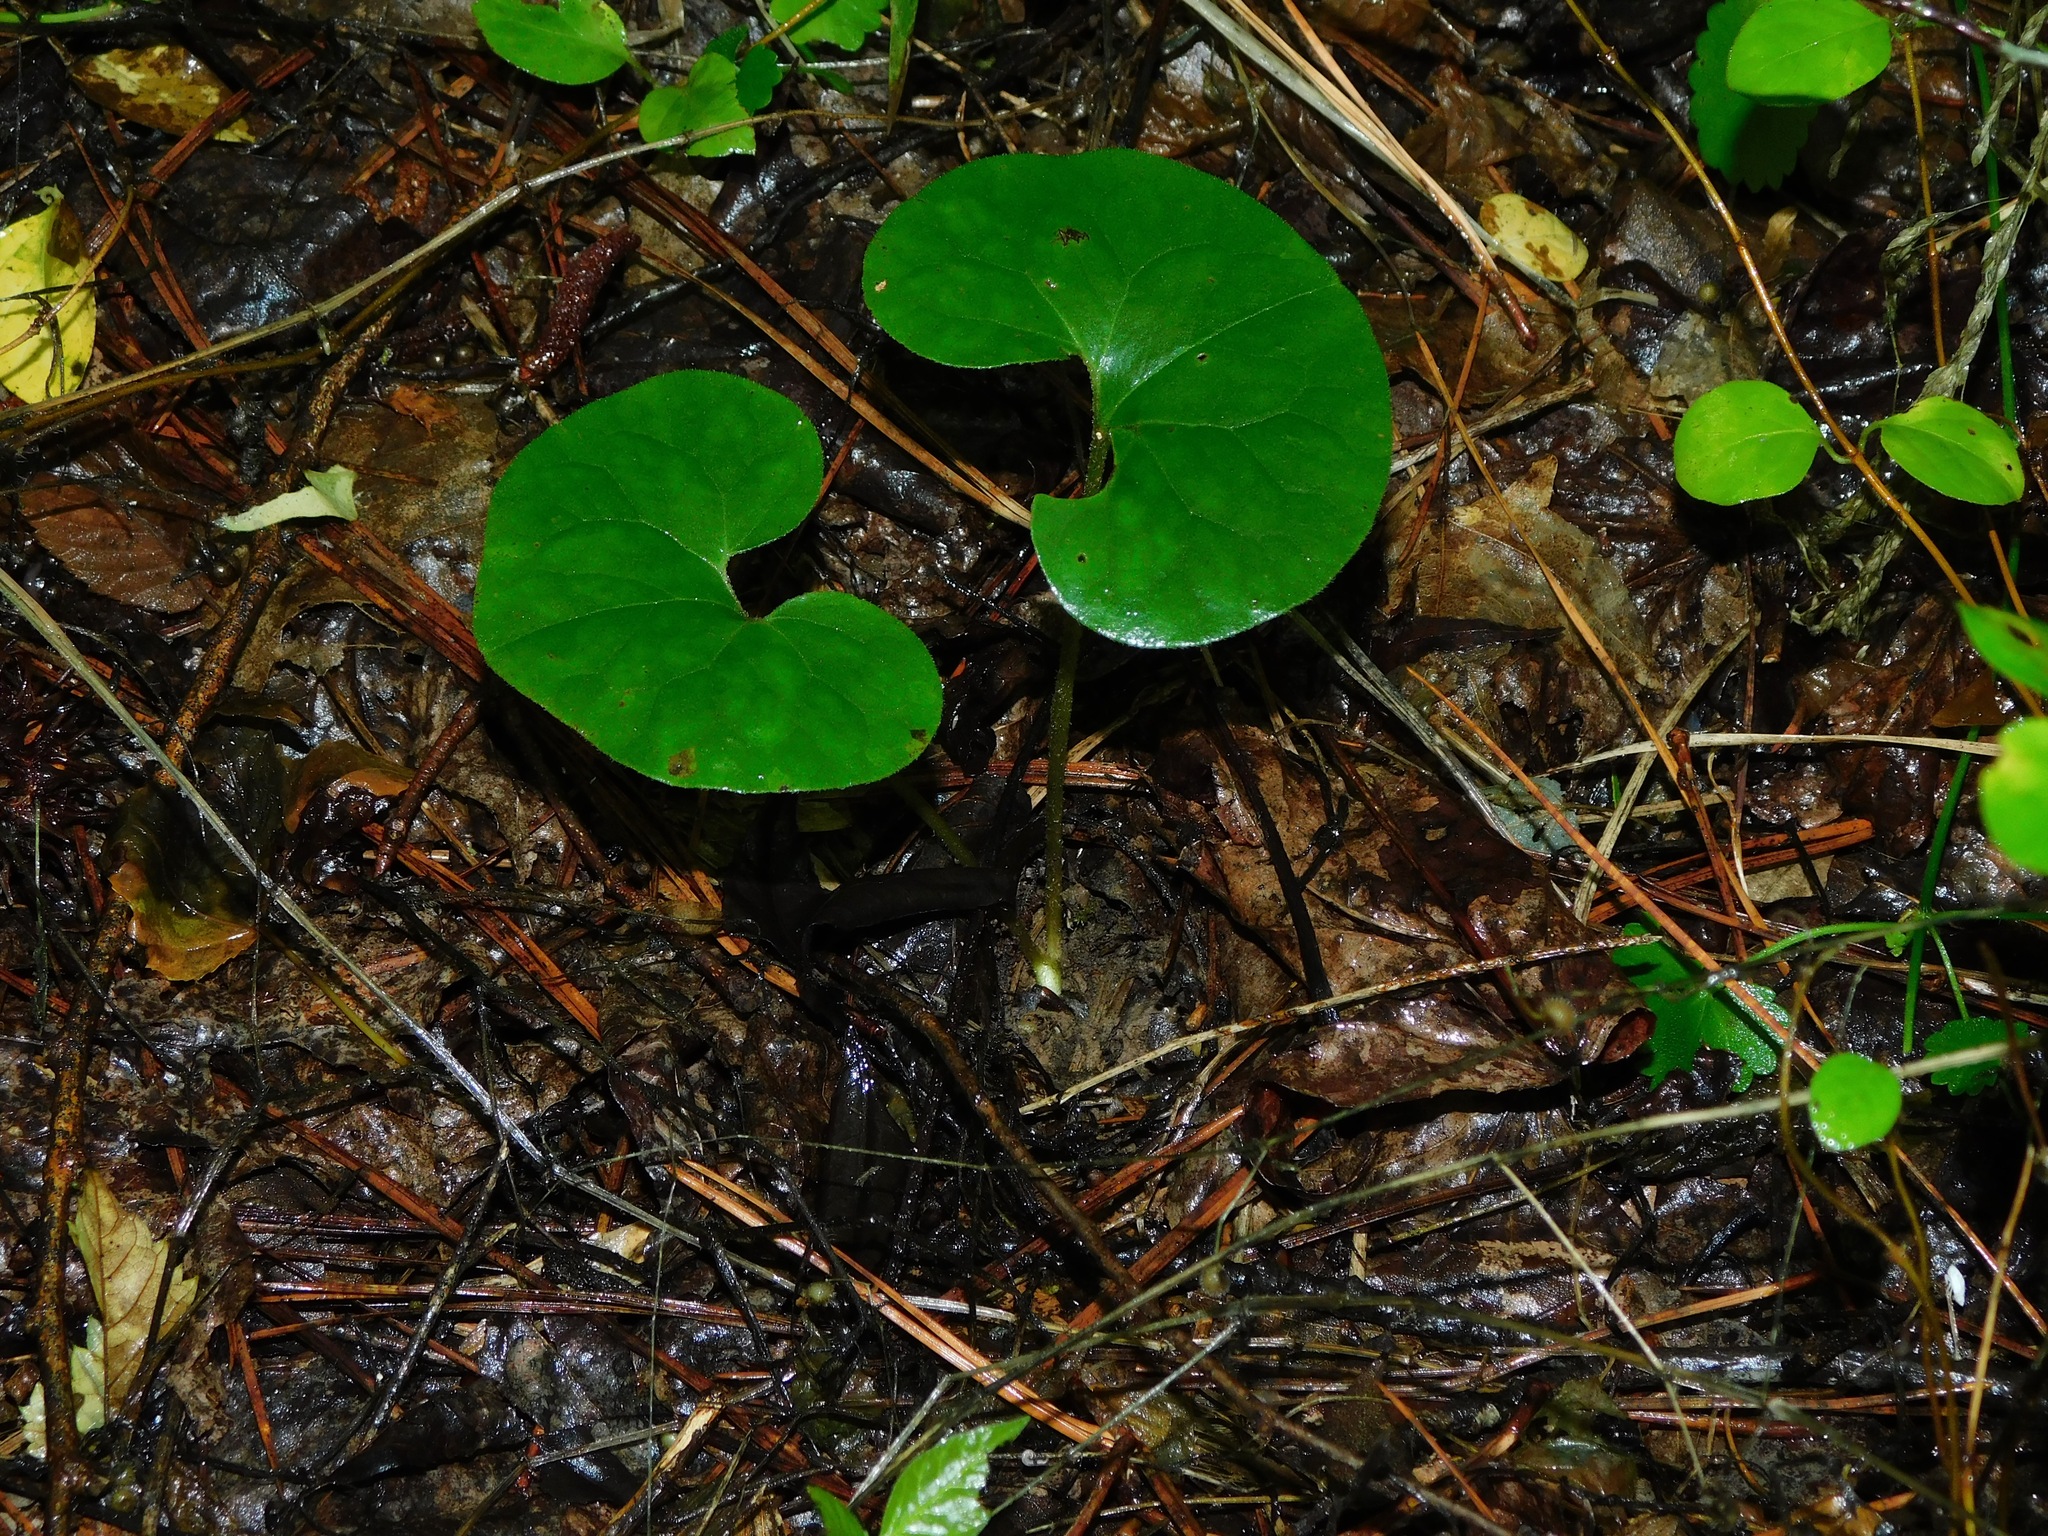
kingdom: Plantae
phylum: Tracheophyta
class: Magnoliopsida
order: Piperales
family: Aristolochiaceae
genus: Asarum
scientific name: Asarum canadense
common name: Wild ginger
